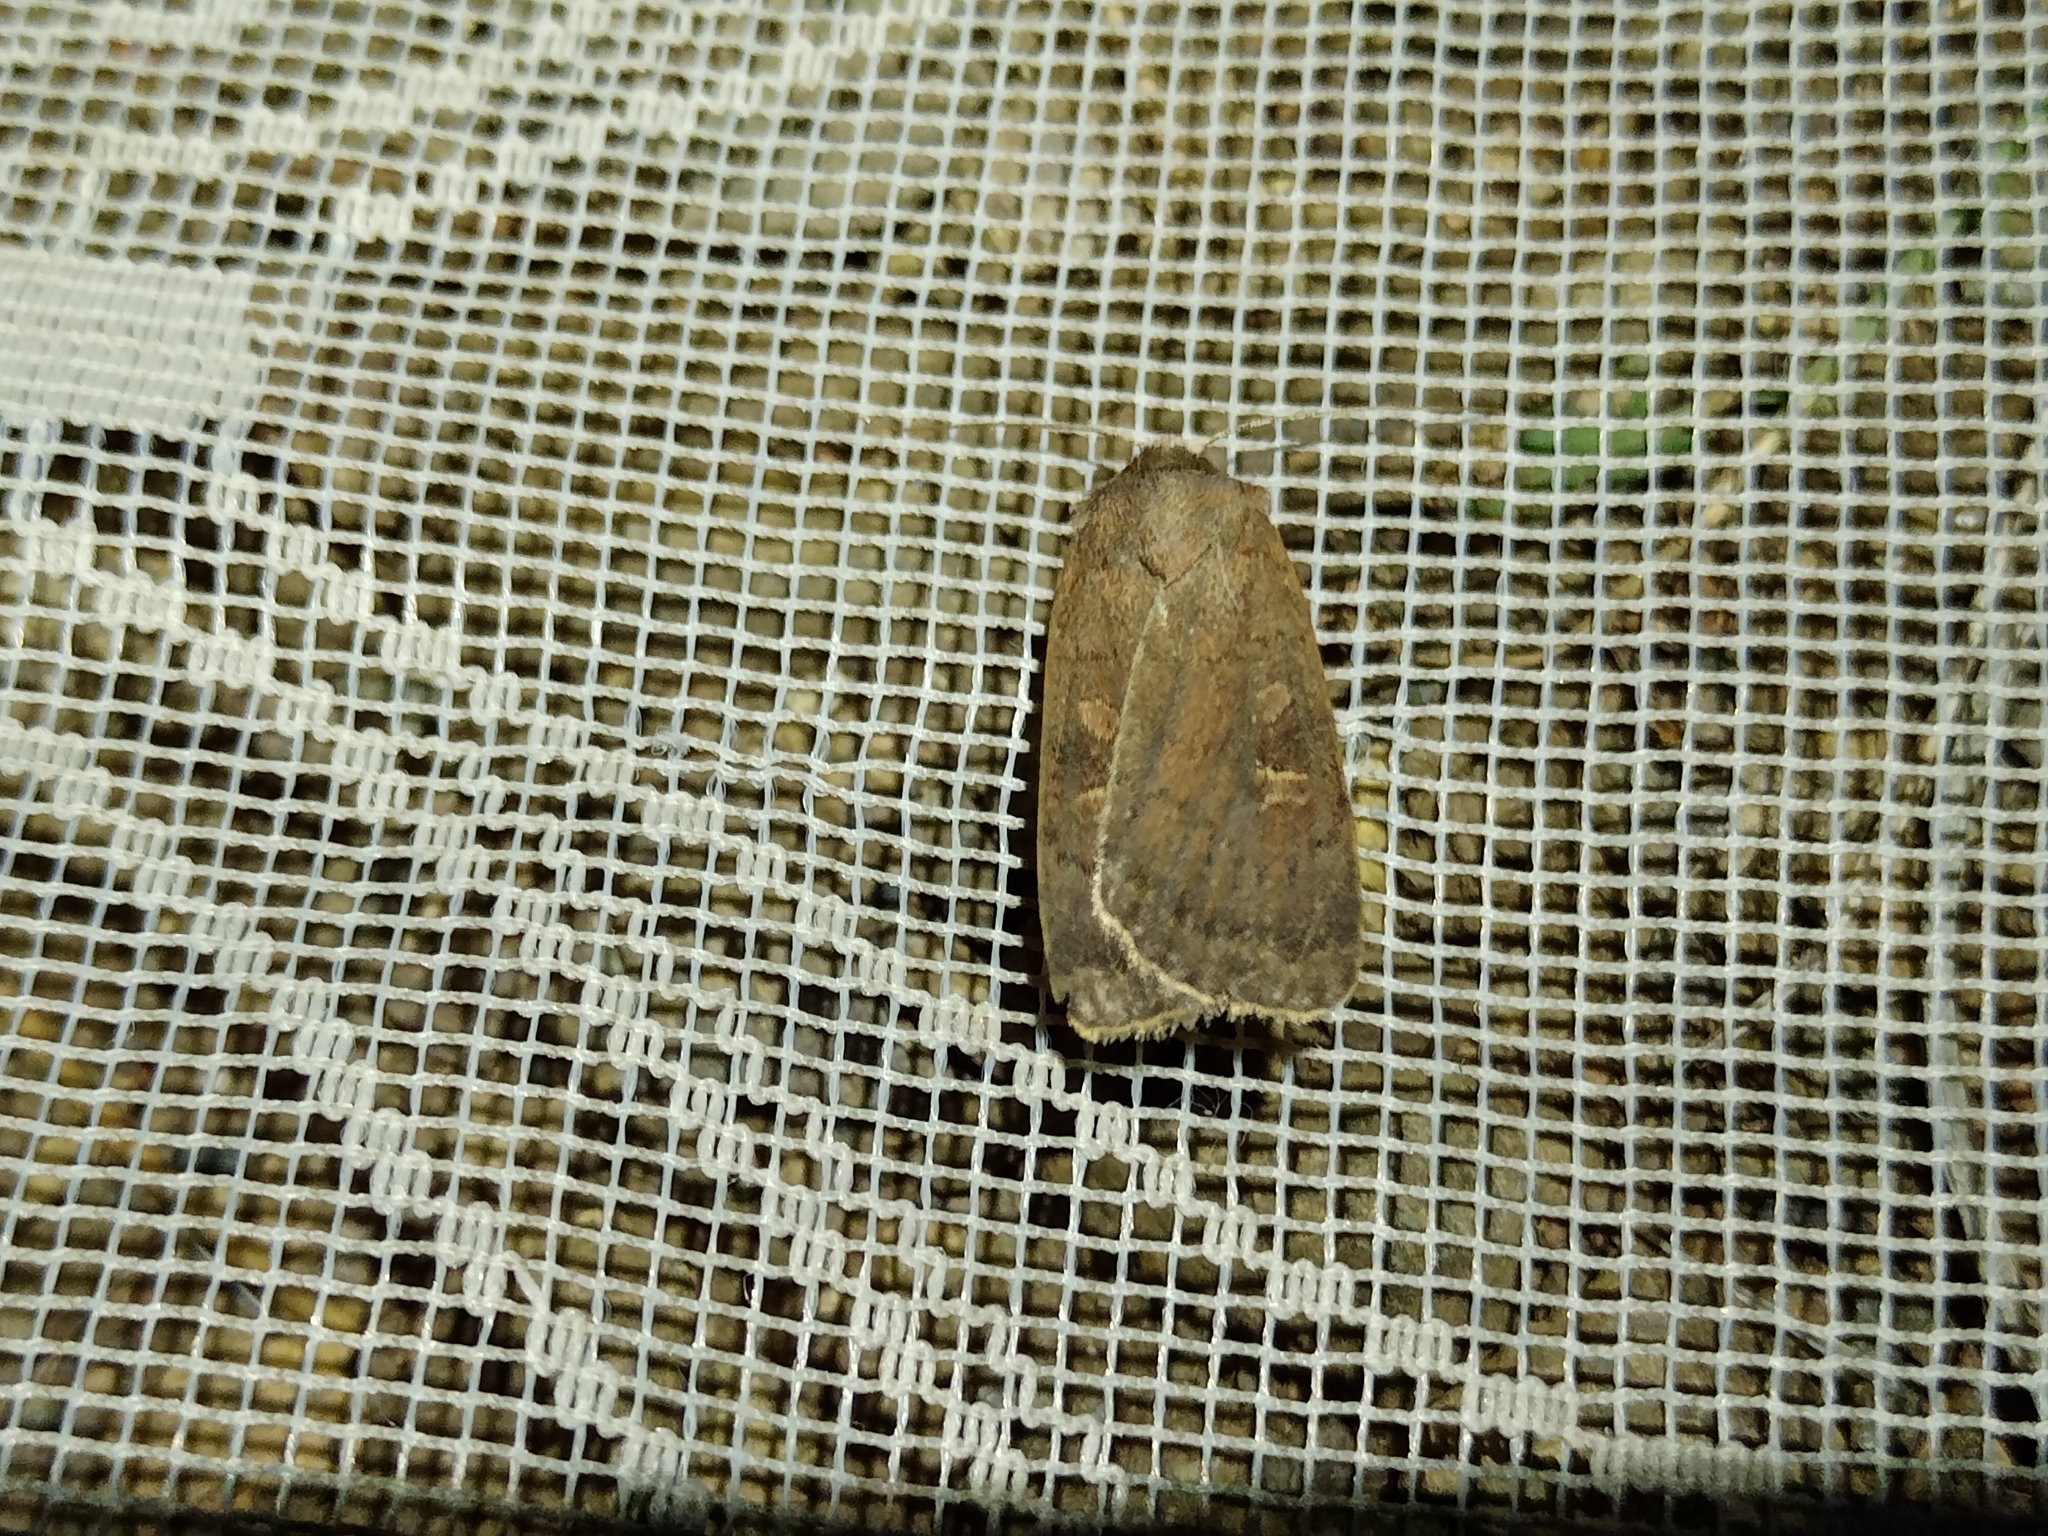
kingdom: Animalia
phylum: Arthropoda
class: Insecta
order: Lepidoptera
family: Noctuidae
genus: Xestia
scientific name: Xestia xanthographa
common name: Square-spot rustic
